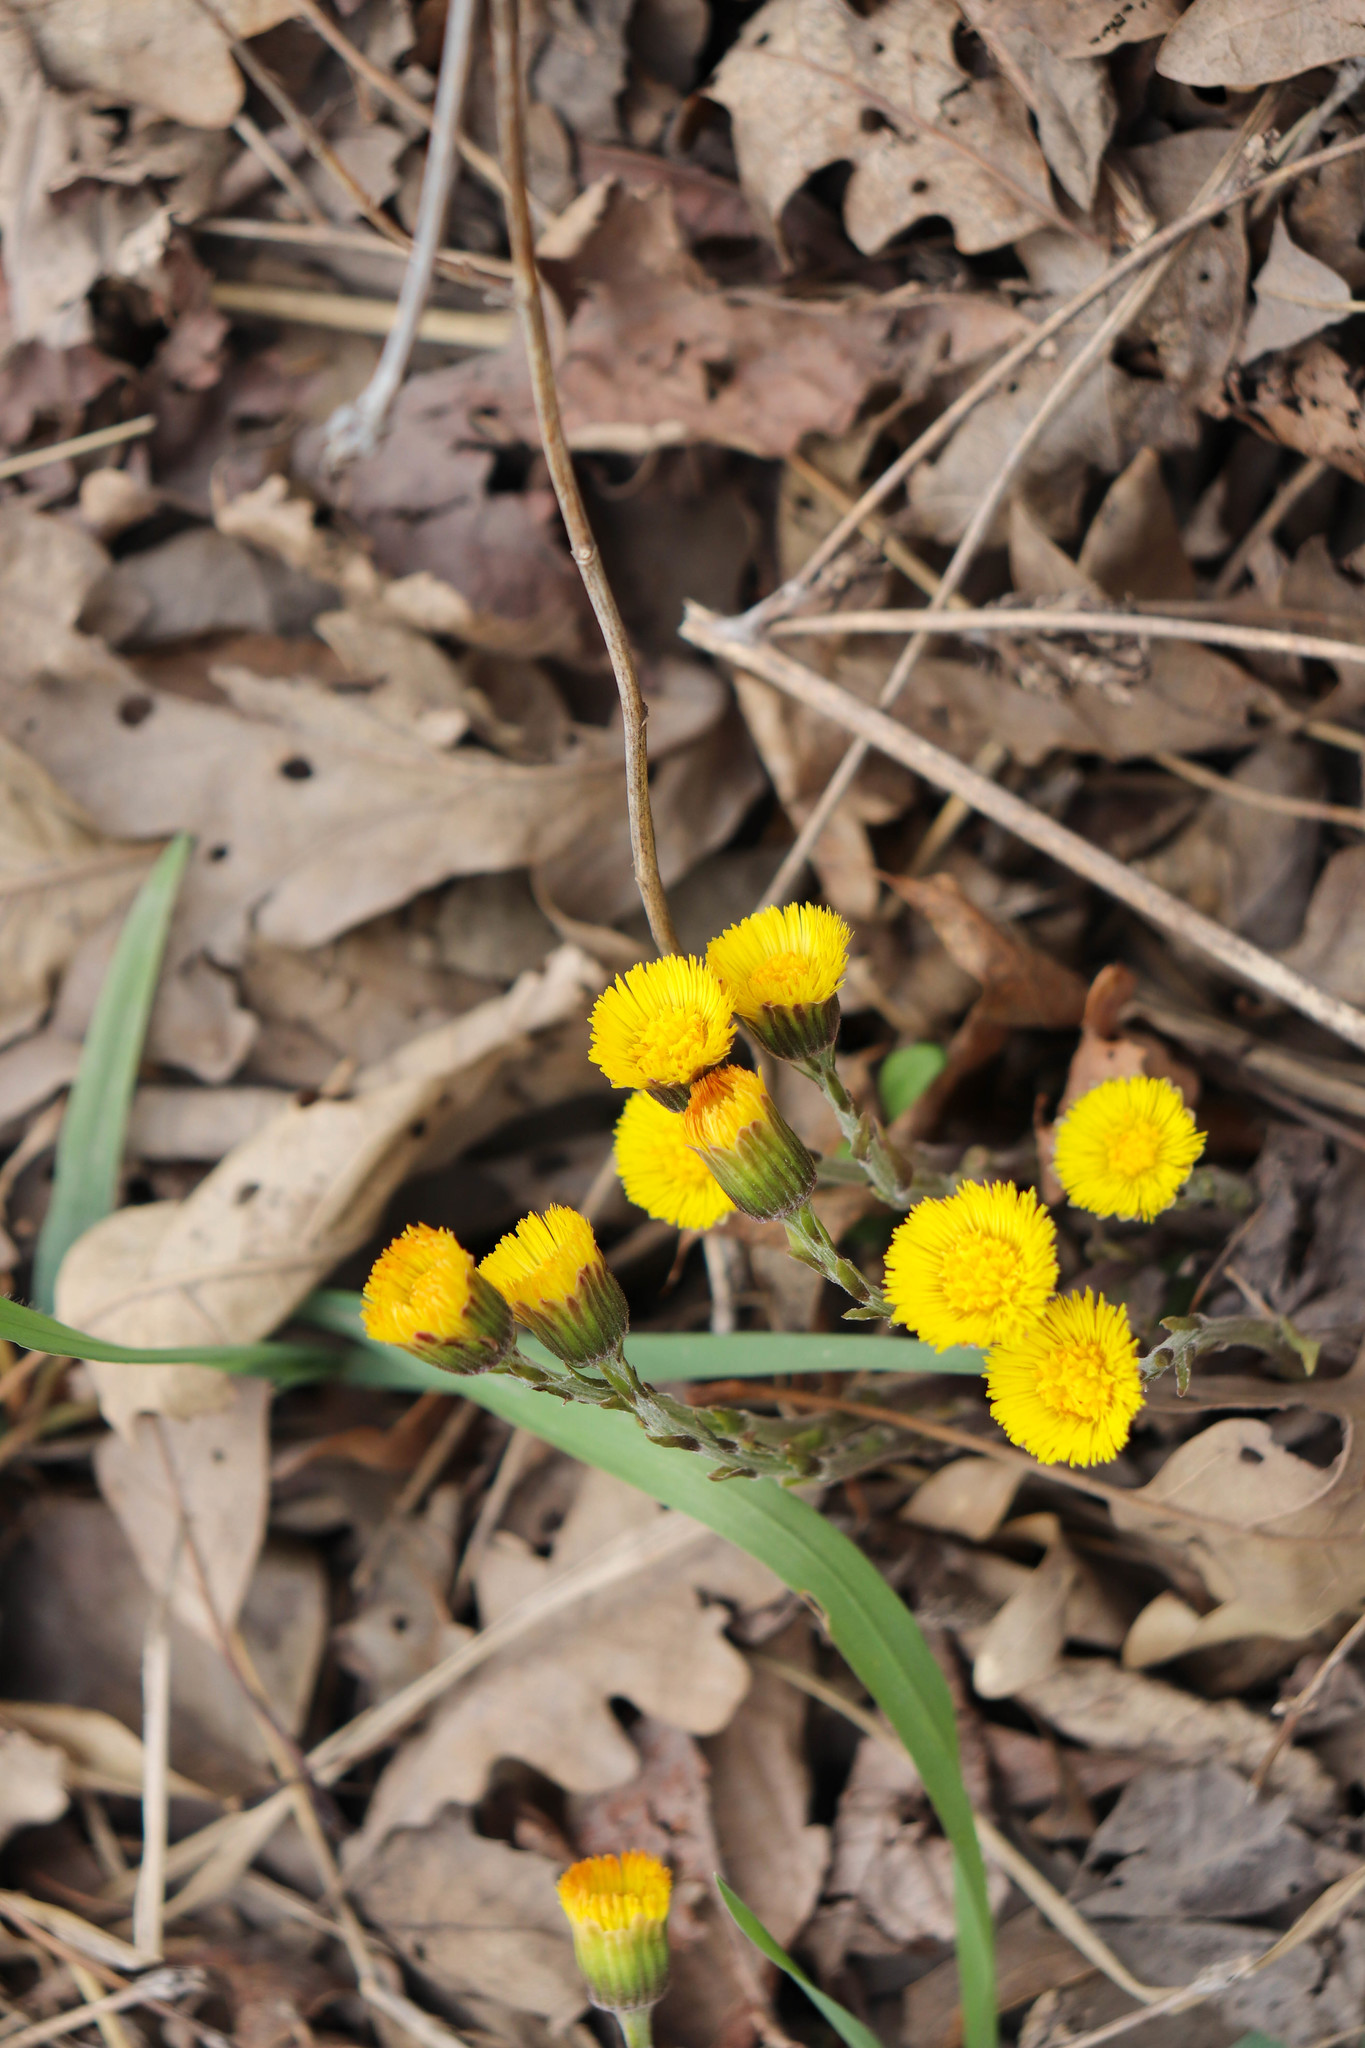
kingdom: Plantae
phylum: Tracheophyta
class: Magnoliopsida
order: Asterales
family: Asteraceae
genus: Tussilago
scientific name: Tussilago farfara
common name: Coltsfoot
